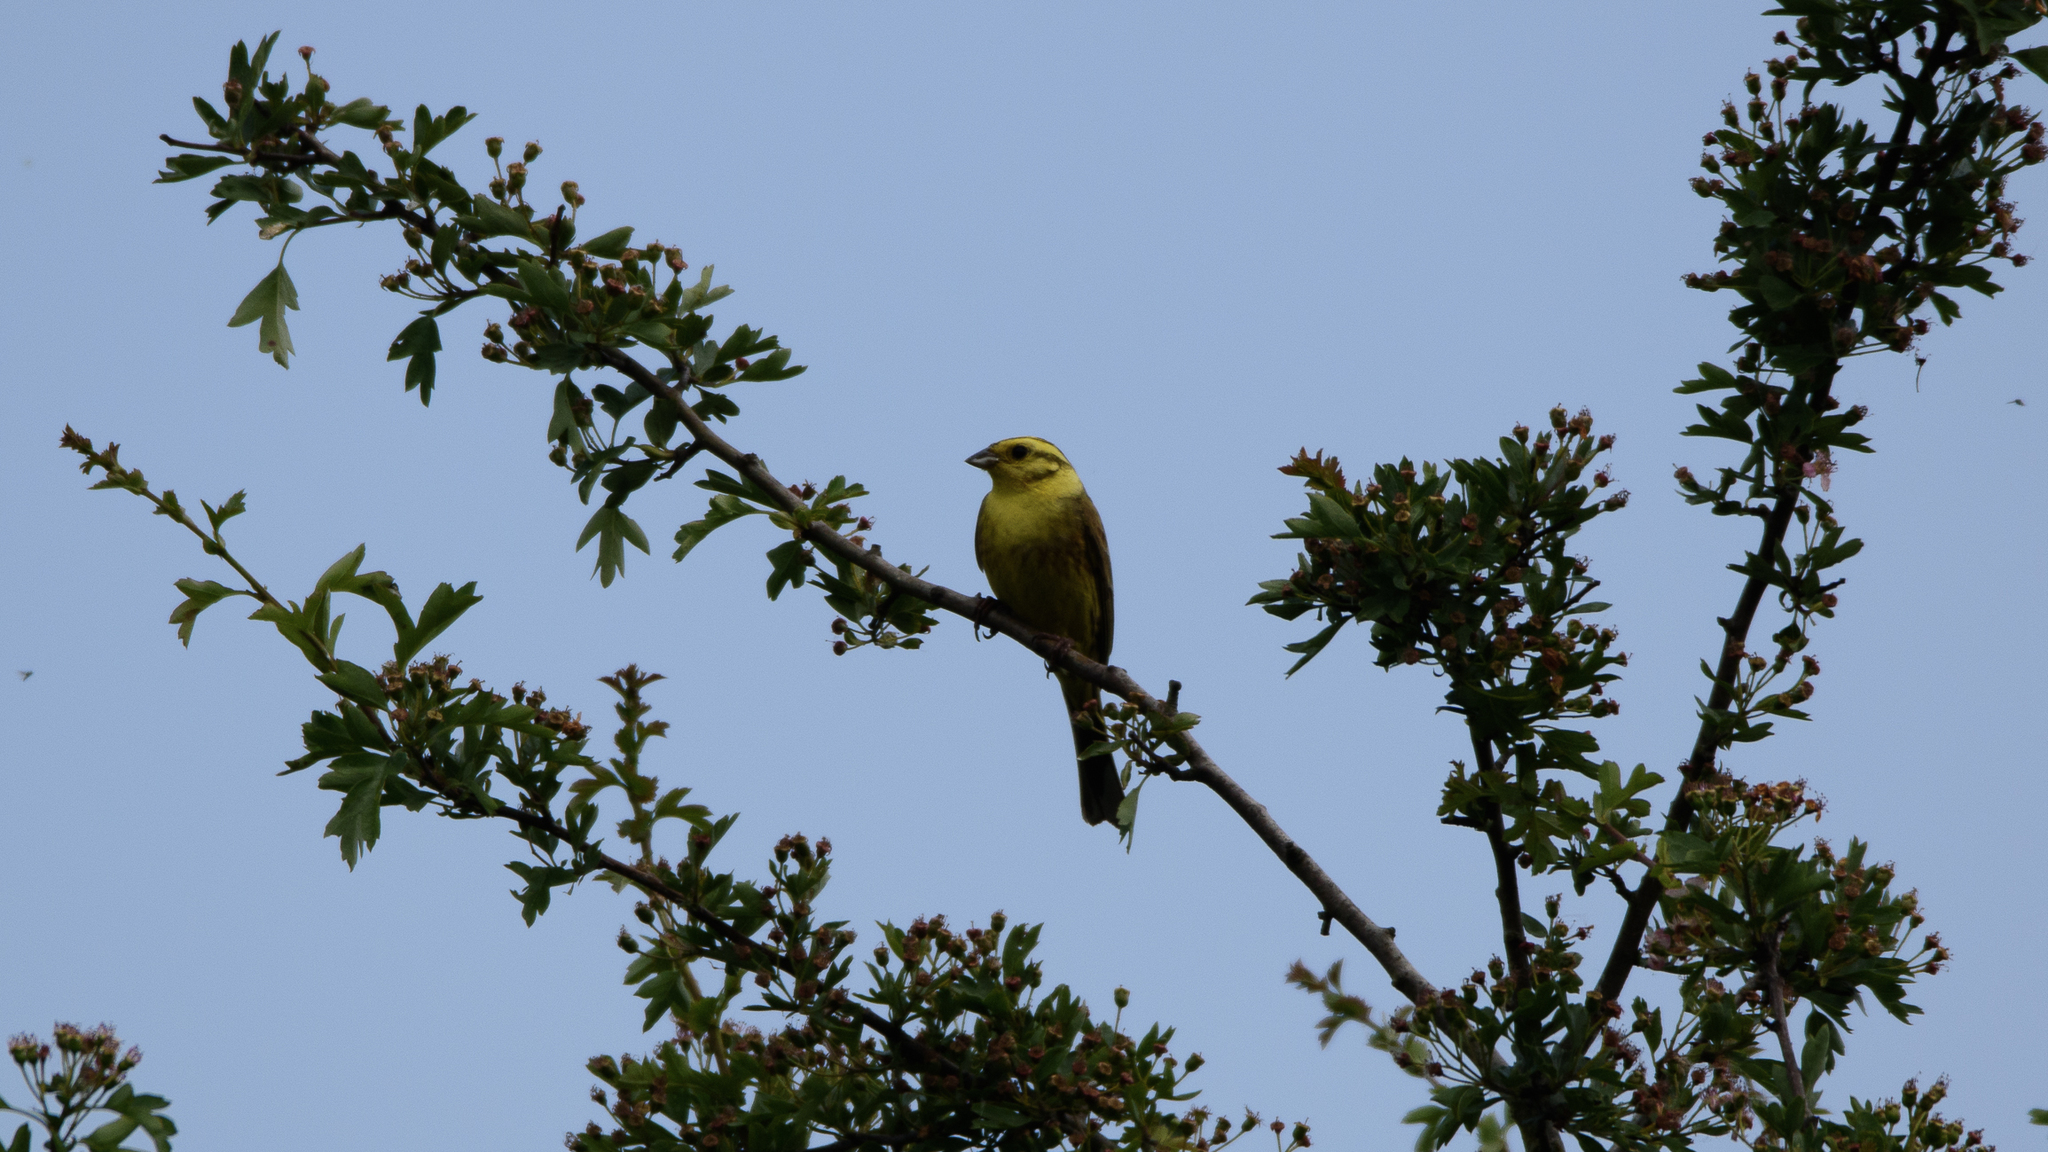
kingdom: Animalia
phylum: Chordata
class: Aves
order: Passeriformes
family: Emberizidae
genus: Emberiza
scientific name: Emberiza citrinella
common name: Yellowhammer
